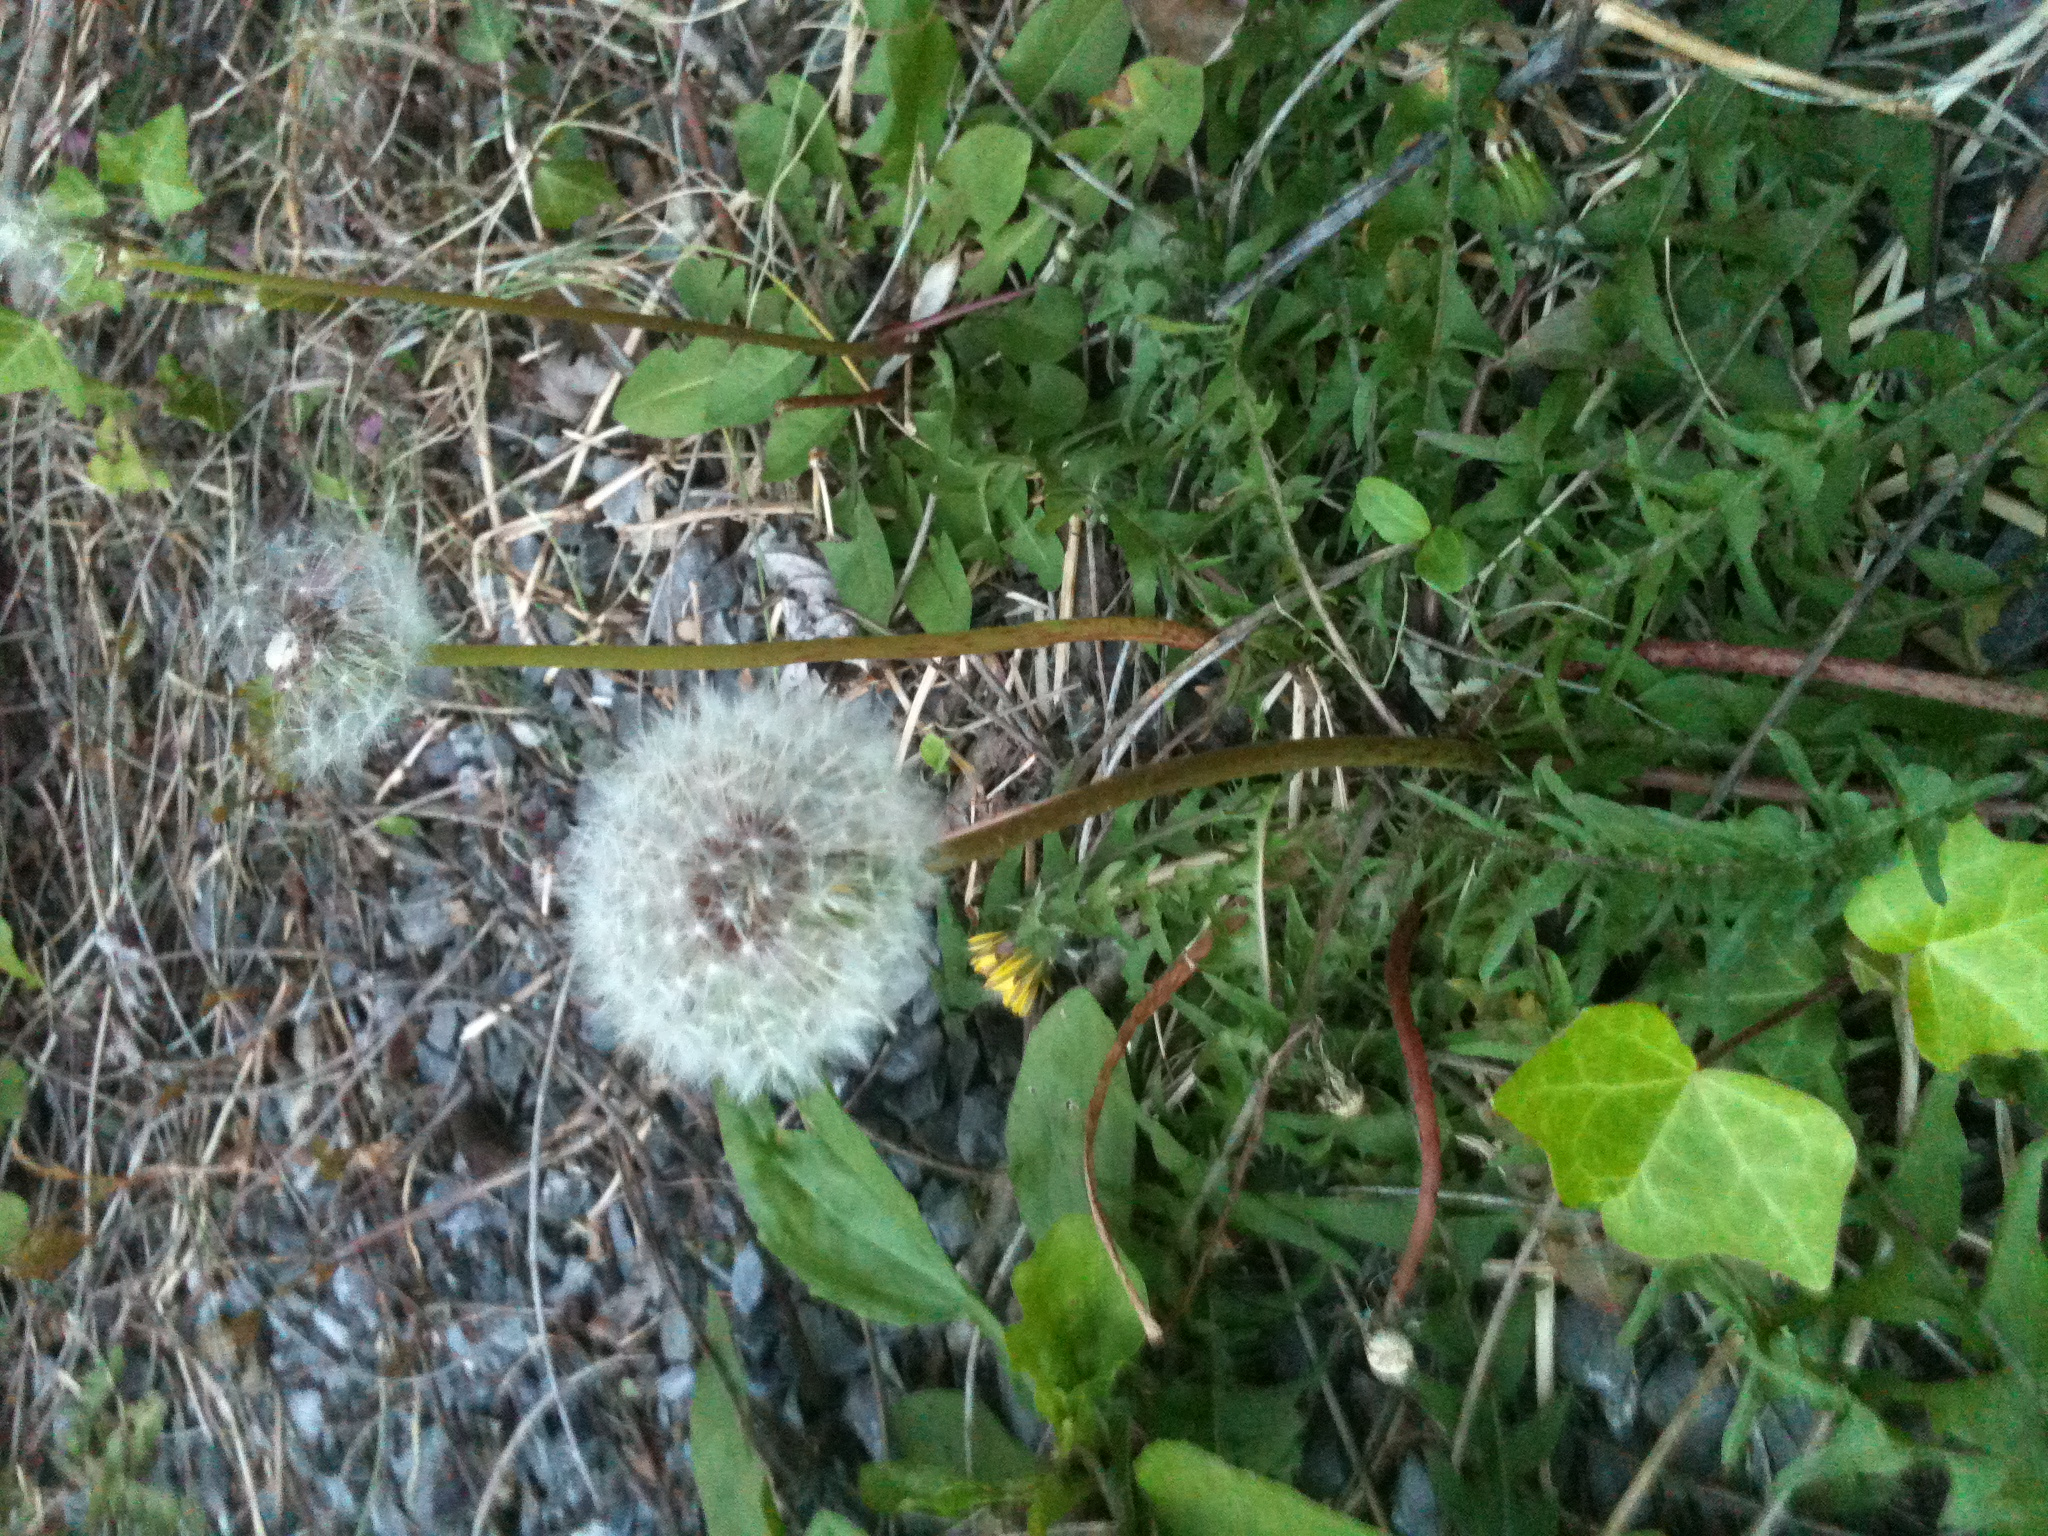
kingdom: Plantae
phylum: Tracheophyta
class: Magnoliopsida
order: Asterales
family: Asteraceae
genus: Taraxacum
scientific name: Taraxacum
